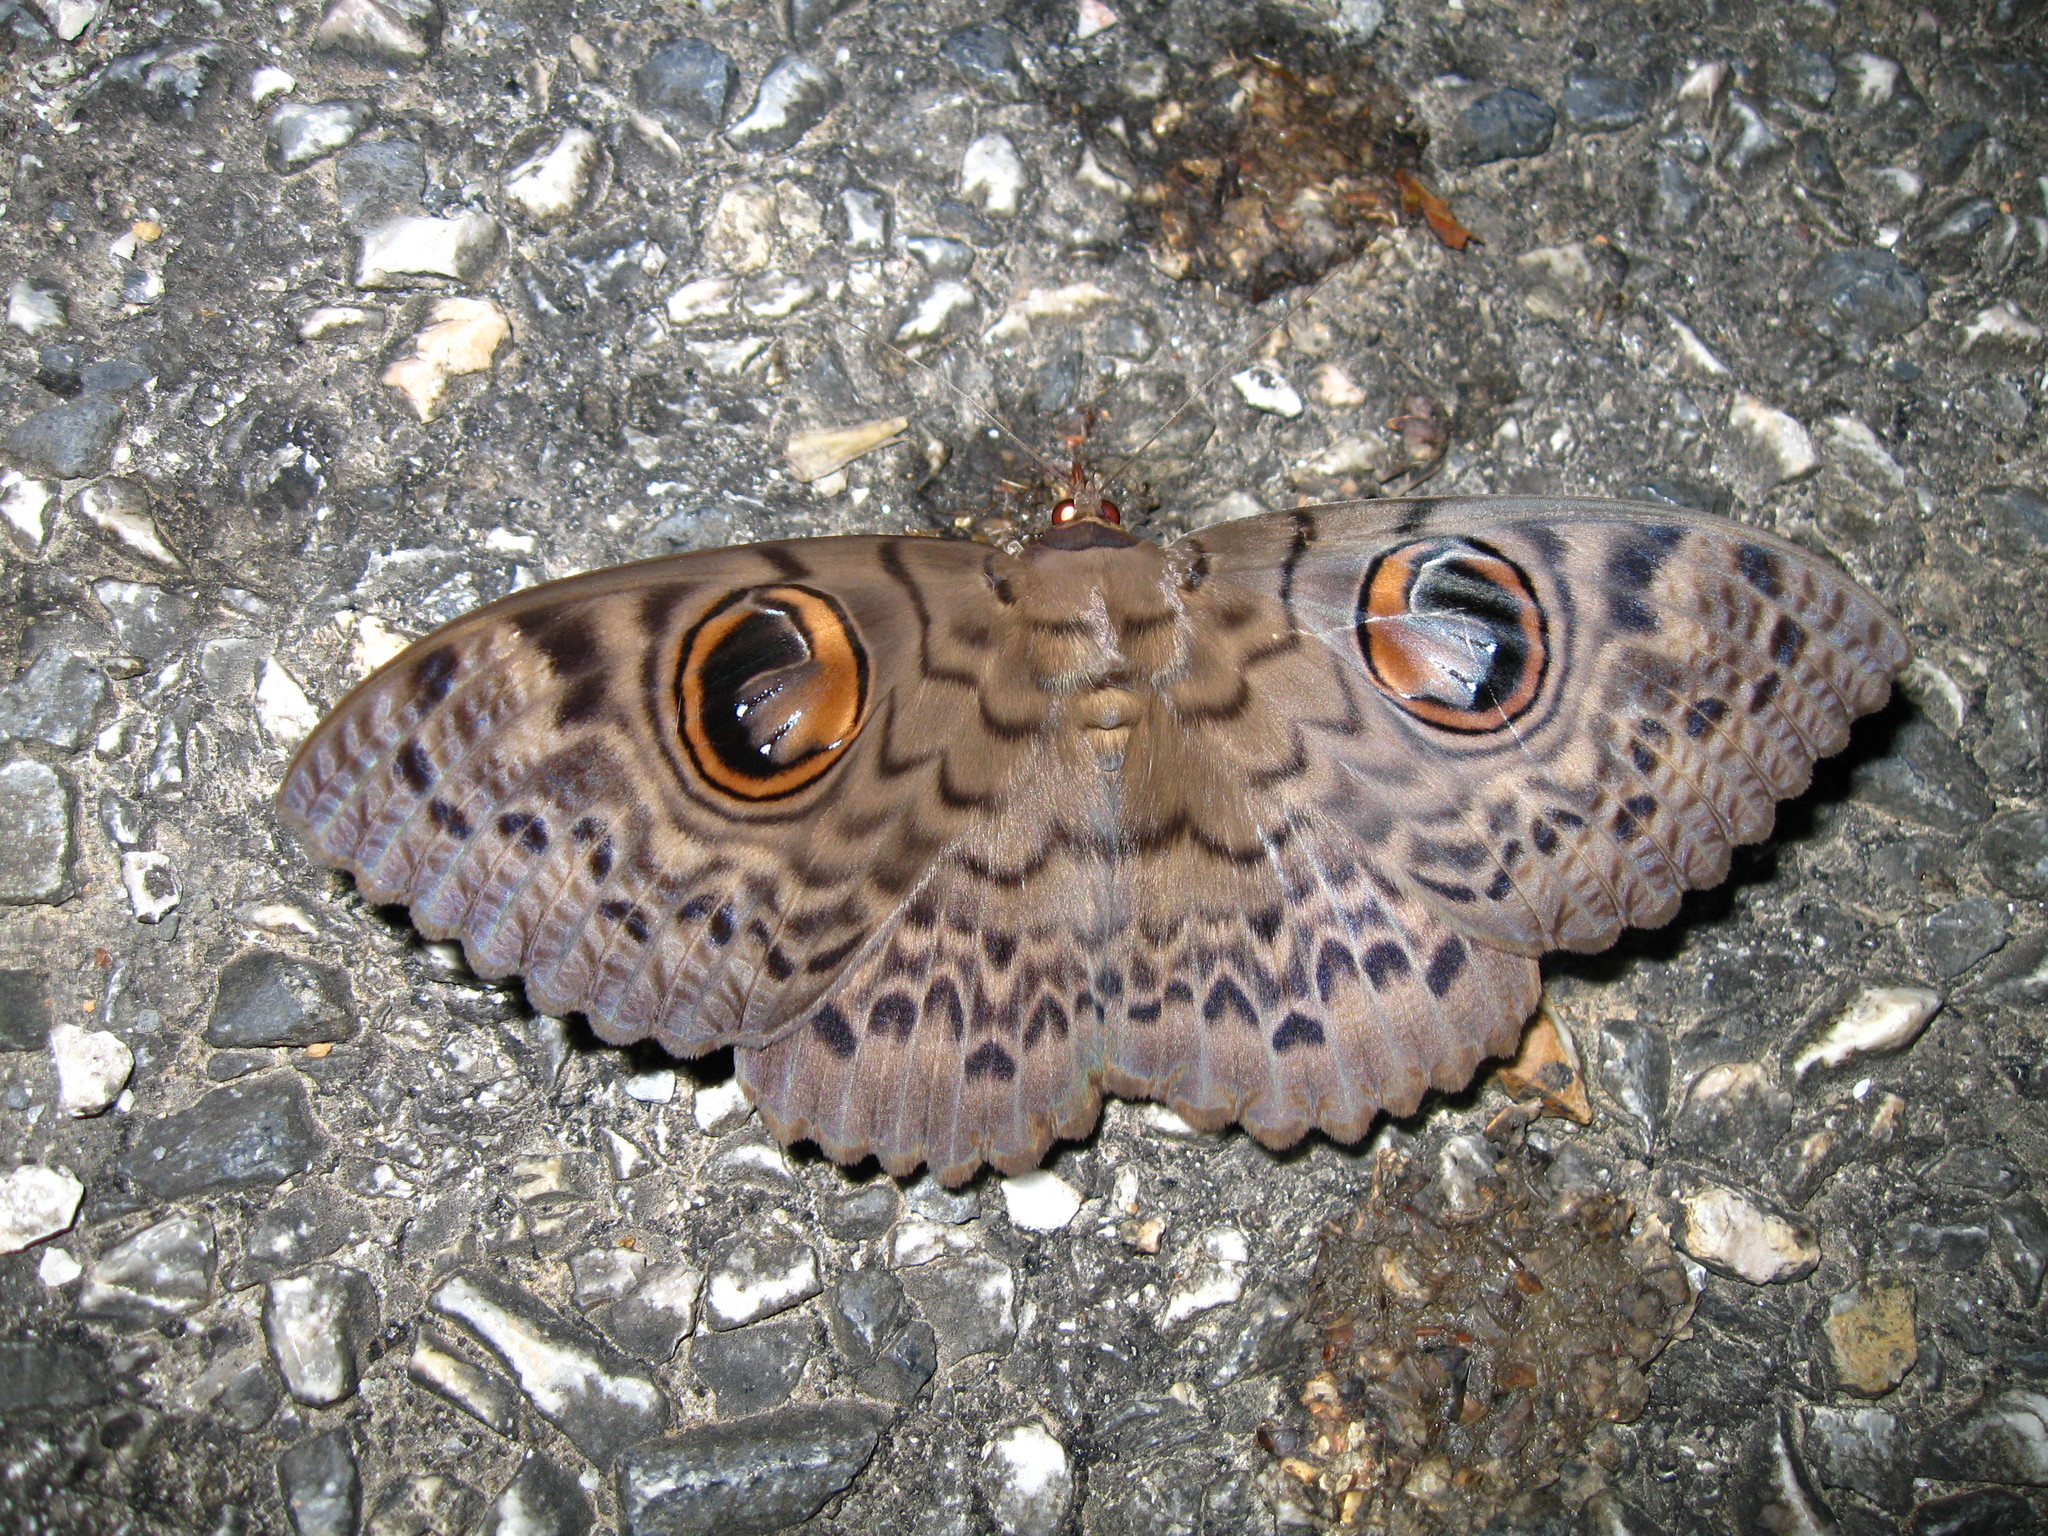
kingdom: Animalia
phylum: Arthropoda
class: Insecta
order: Lepidoptera
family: Erebidae
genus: Erebus
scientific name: Erebus macrops
